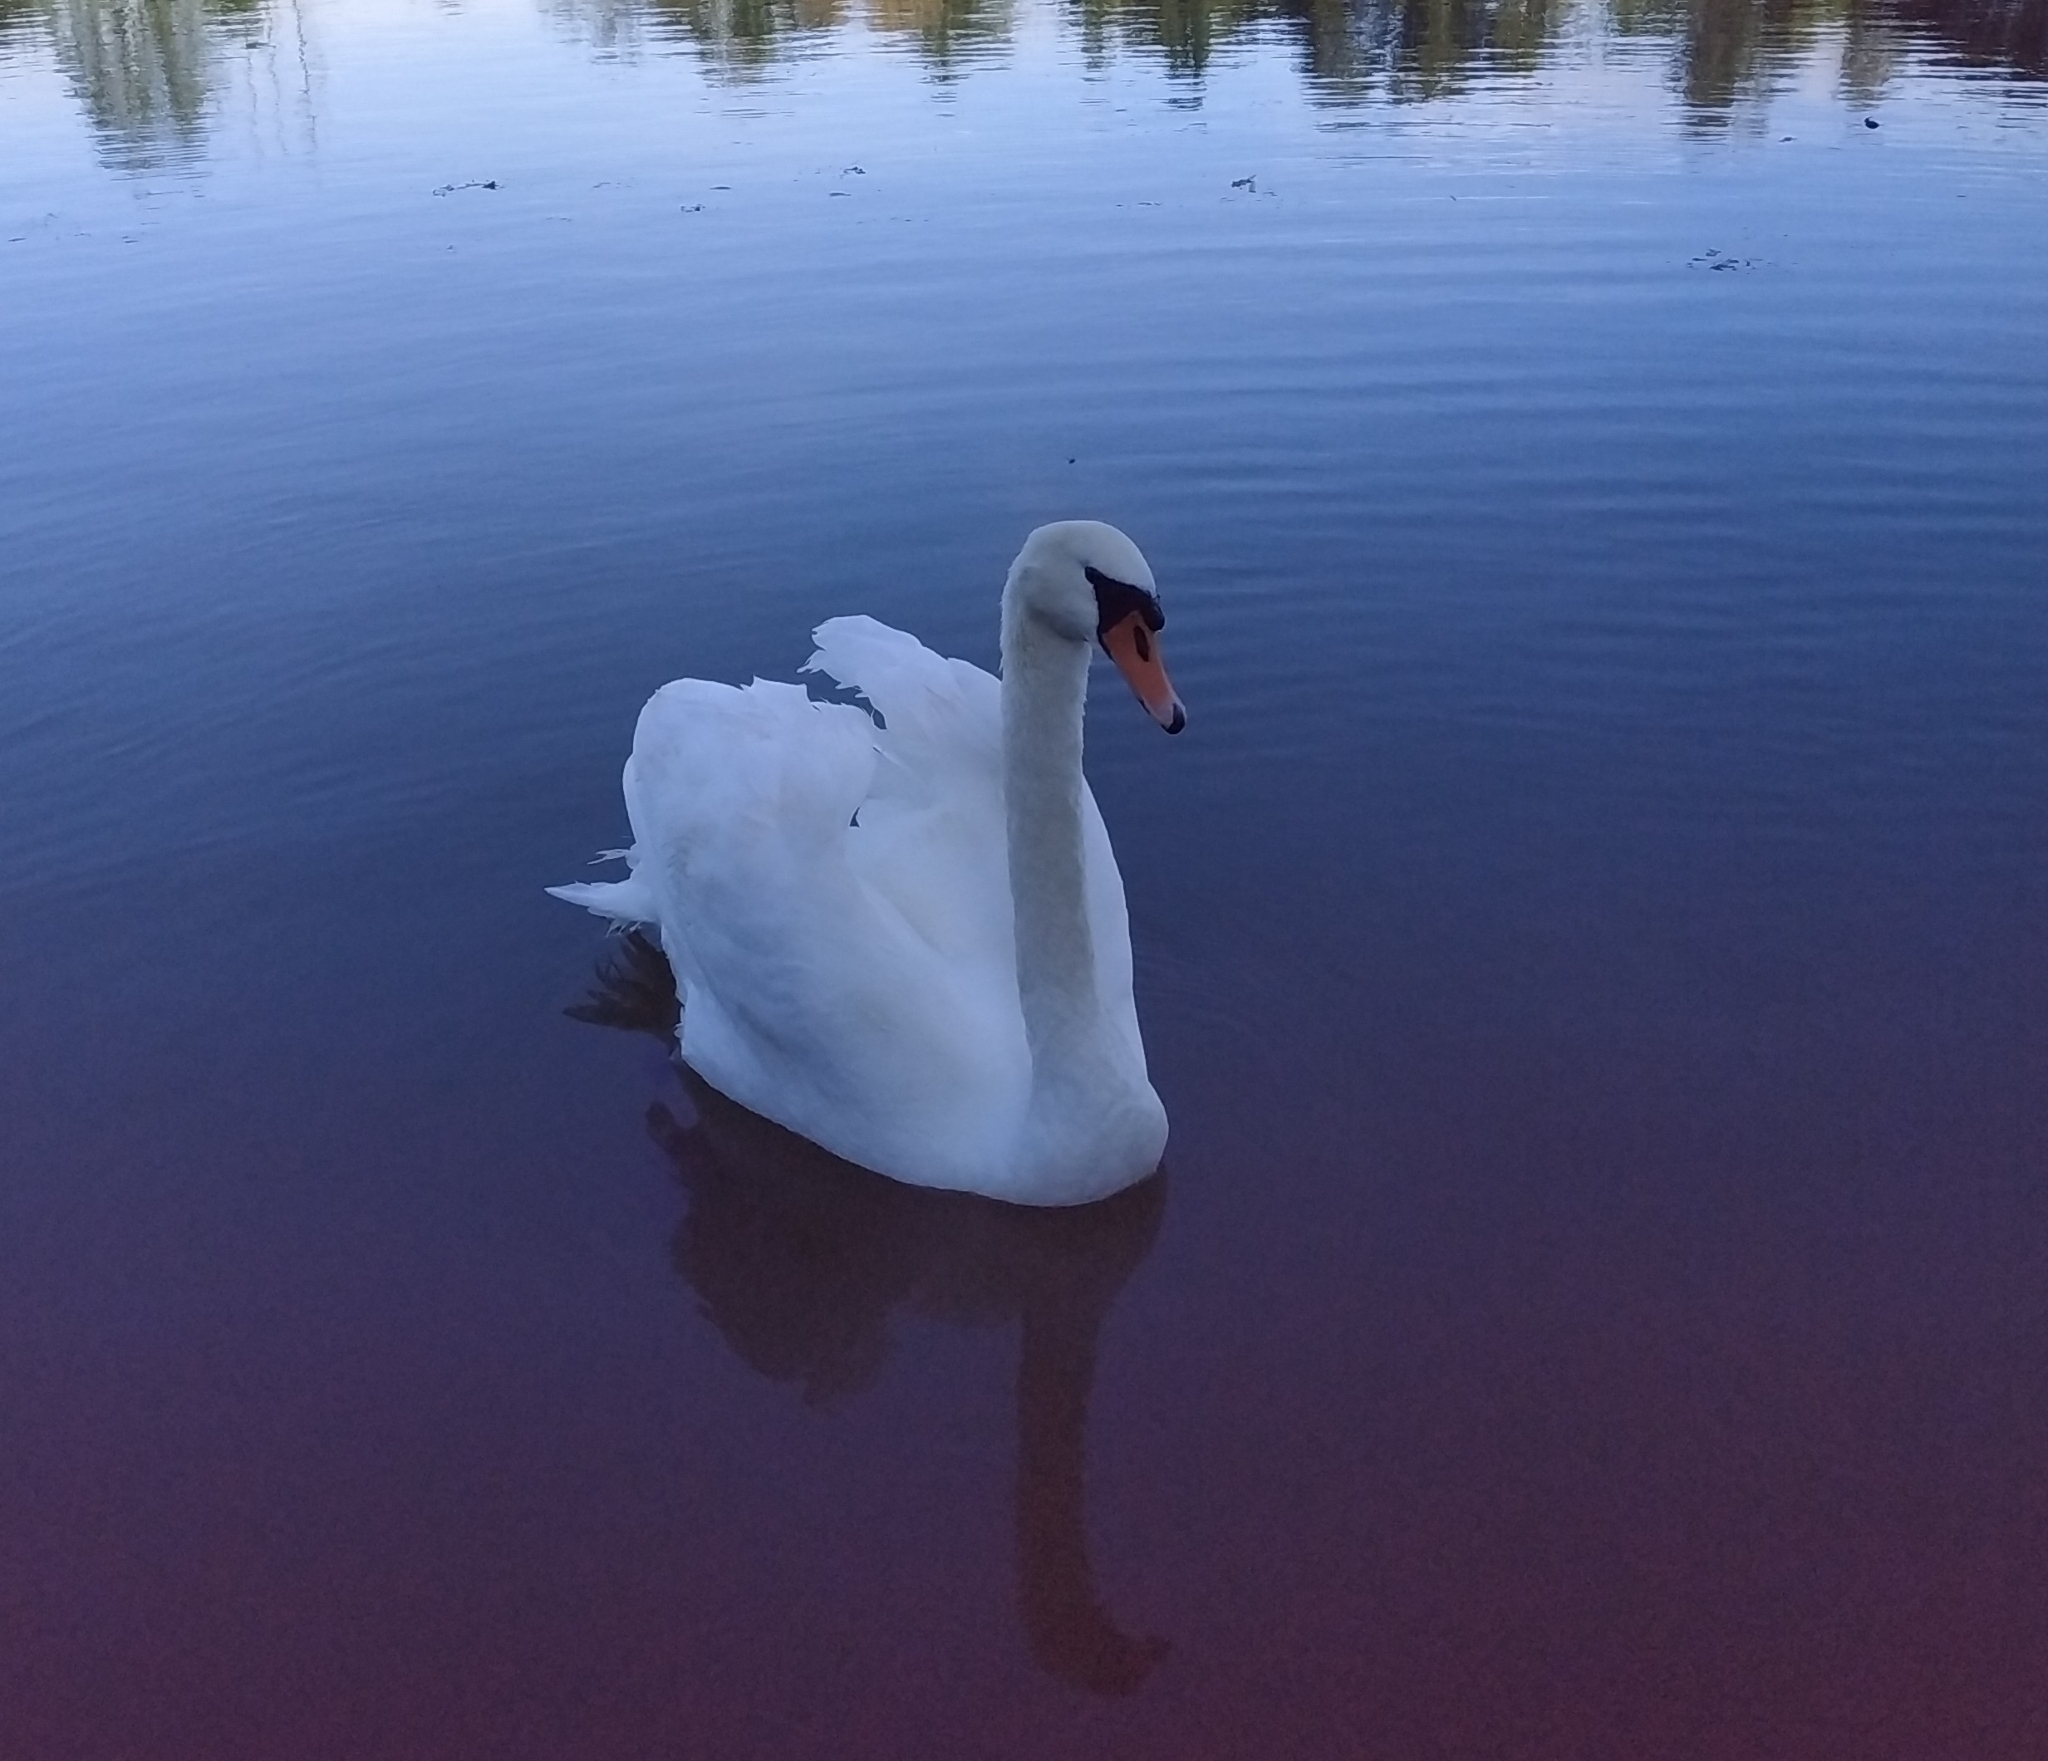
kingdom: Animalia
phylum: Chordata
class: Aves
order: Anseriformes
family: Anatidae
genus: Cygnus
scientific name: Cygnus olor
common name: Mute swan
